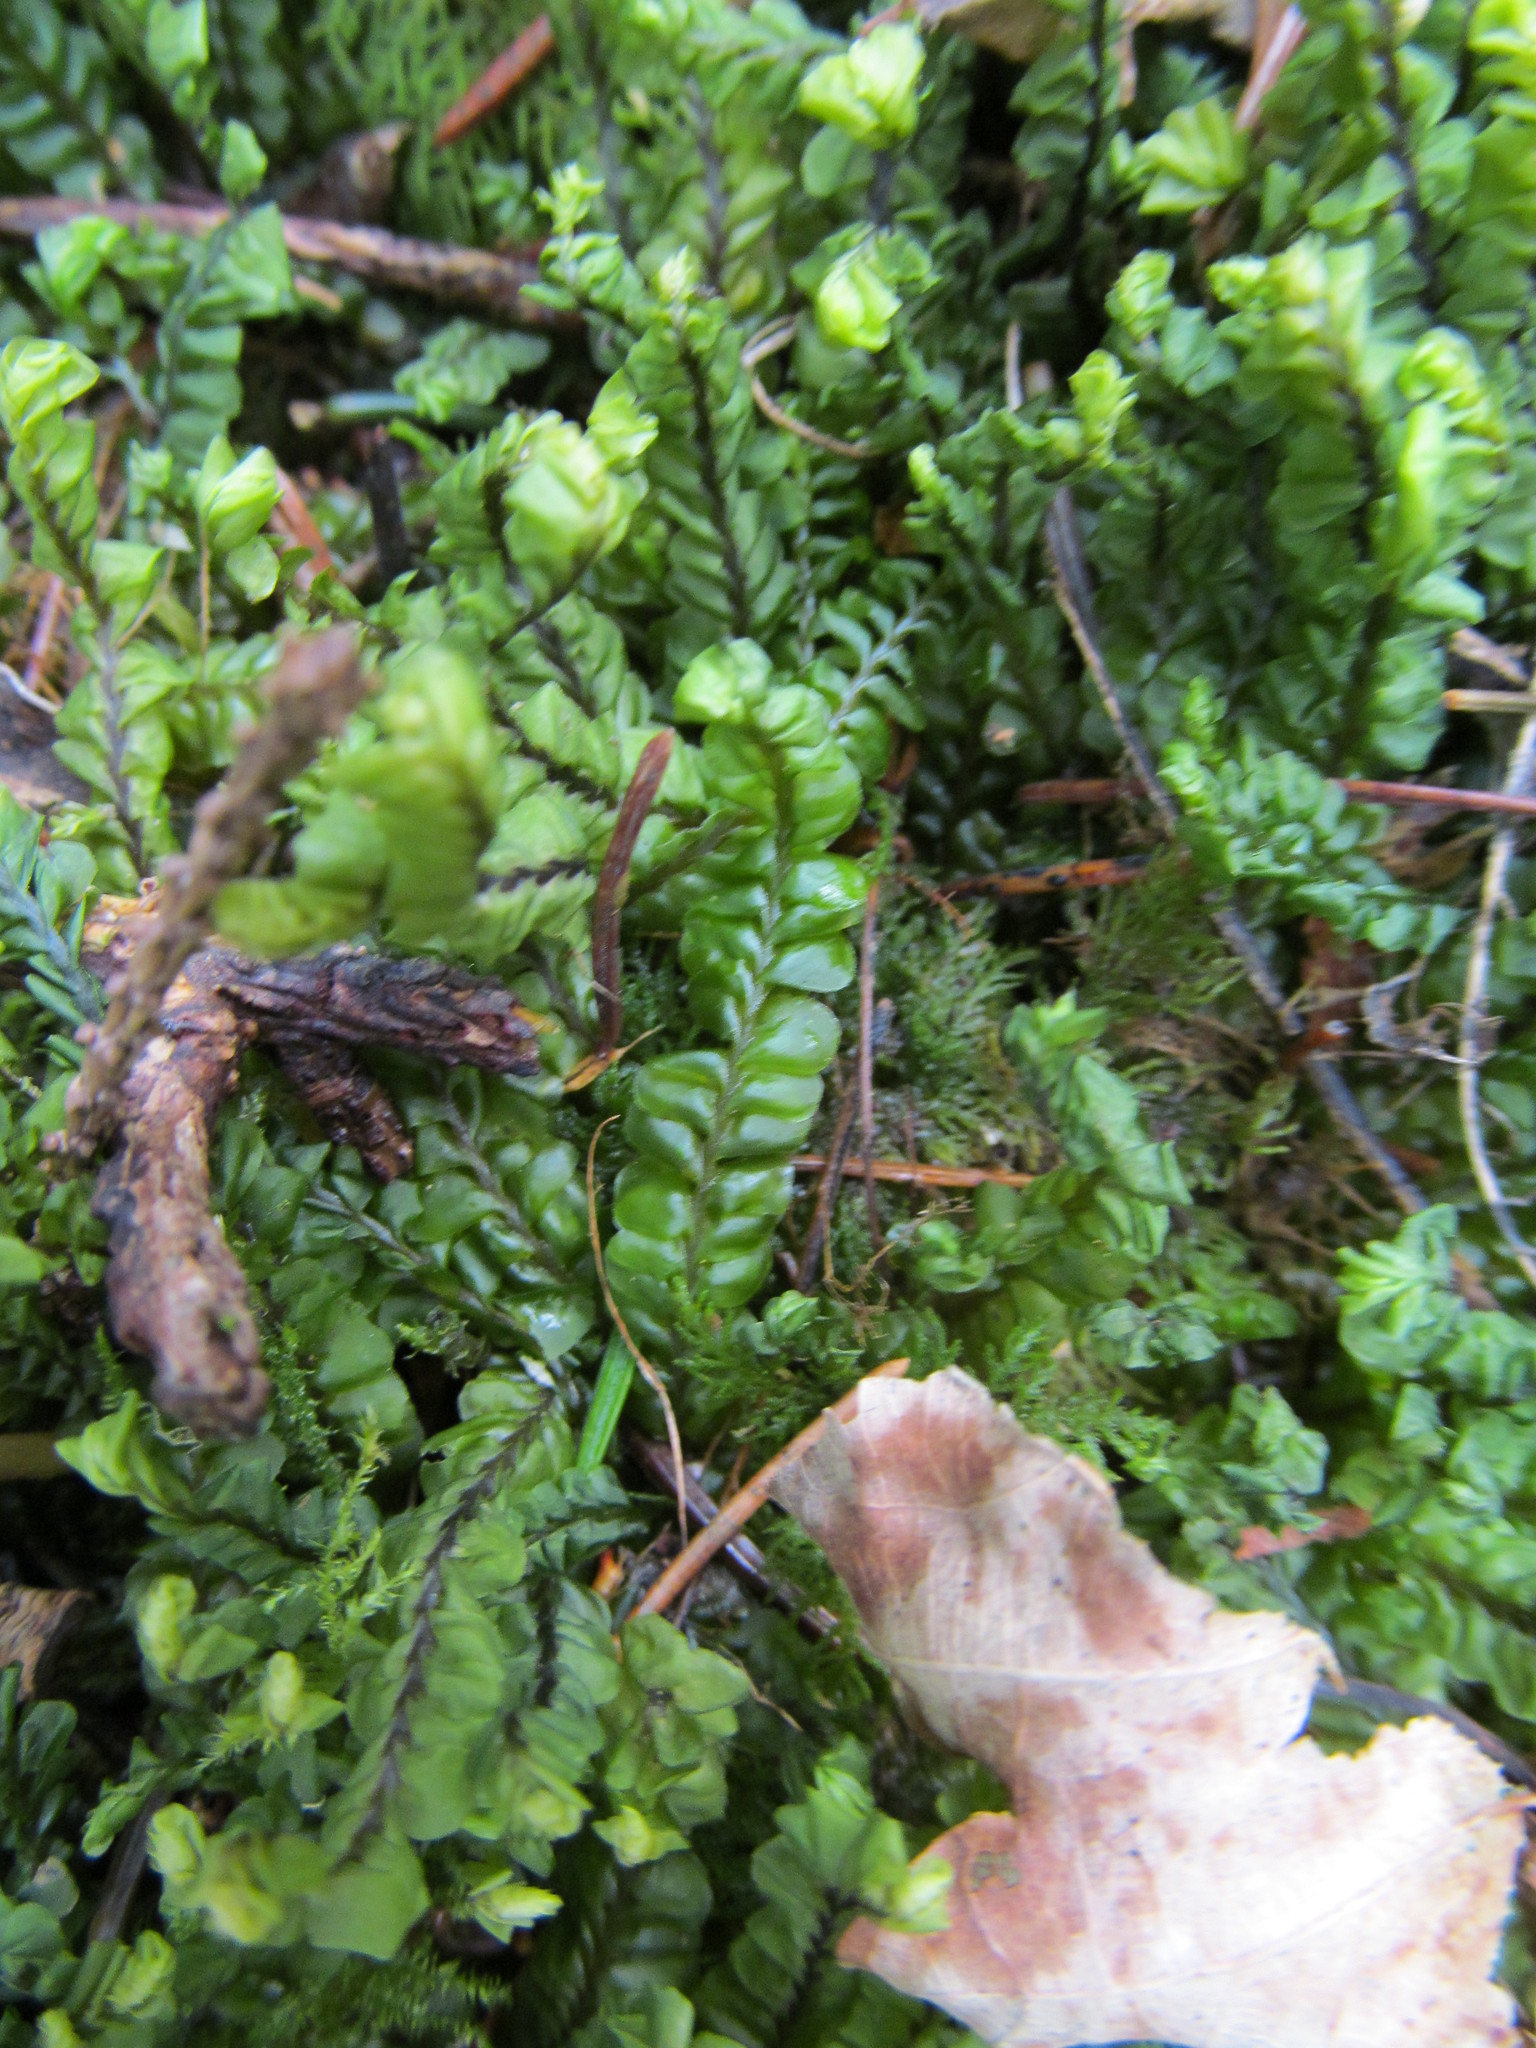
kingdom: Plantae
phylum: Marchantiophyta
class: Jungermanniopsida
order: Jungermanniales
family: Plagiochilaceae
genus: Plagiochila
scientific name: Plagiochila asplenioides
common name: Greater featherwort
